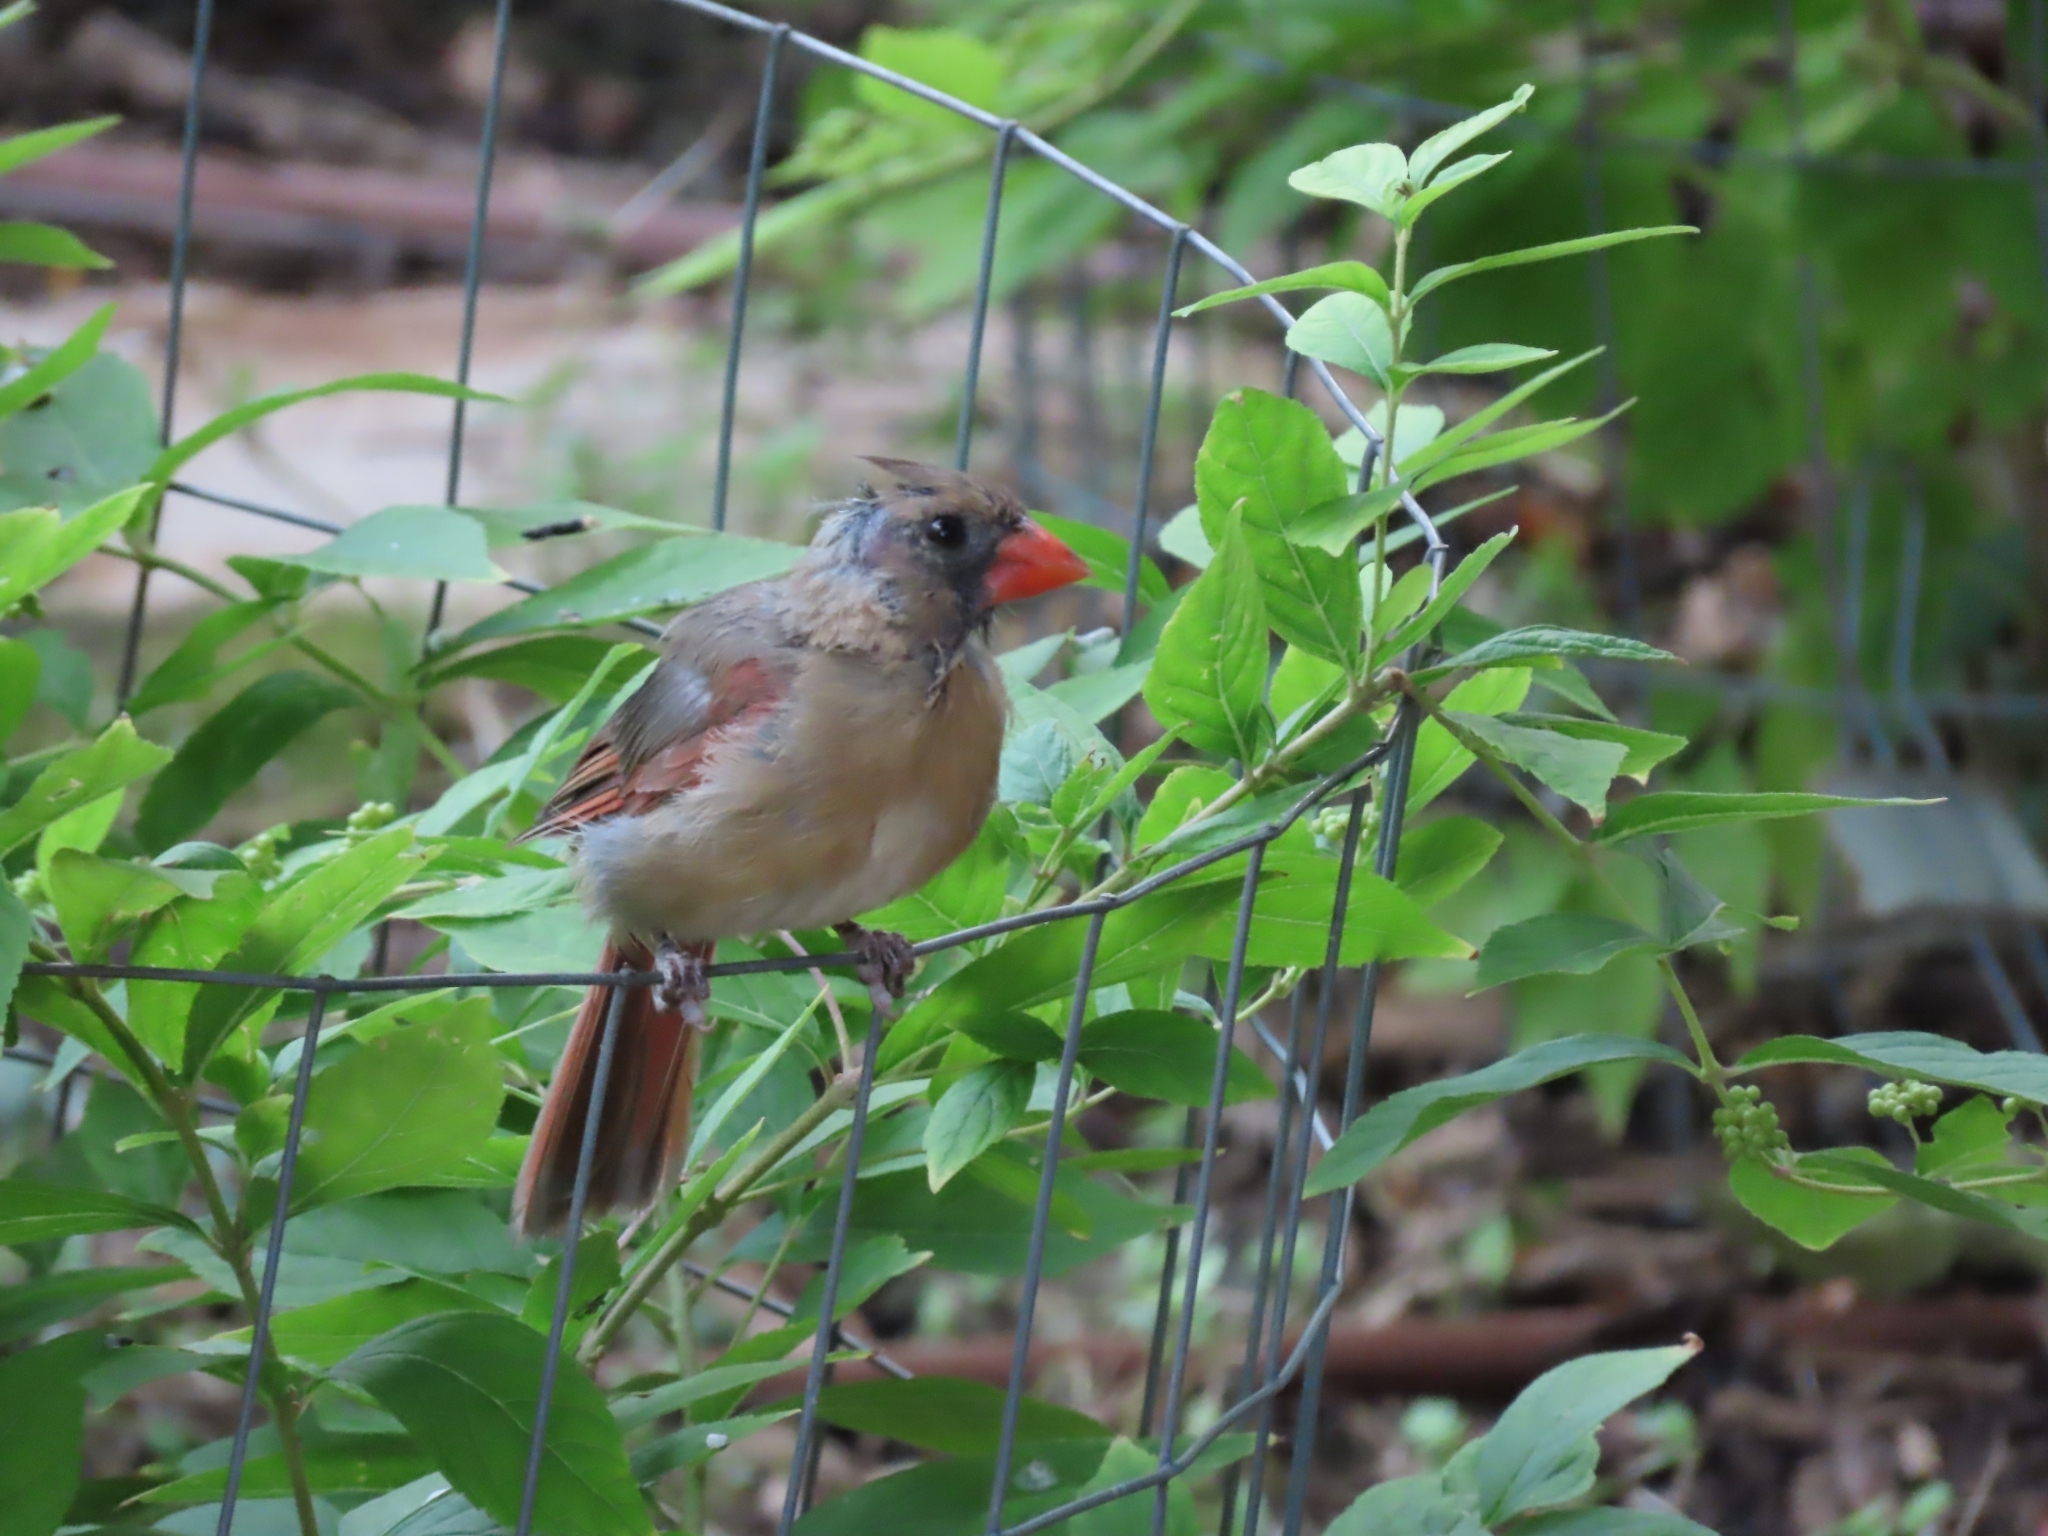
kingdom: Animalia
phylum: Chordata
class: Aves
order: Passeriformes
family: Cardinalidae
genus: Cardinalis
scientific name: Cardinalis cardinalis
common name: Northern cardinal
